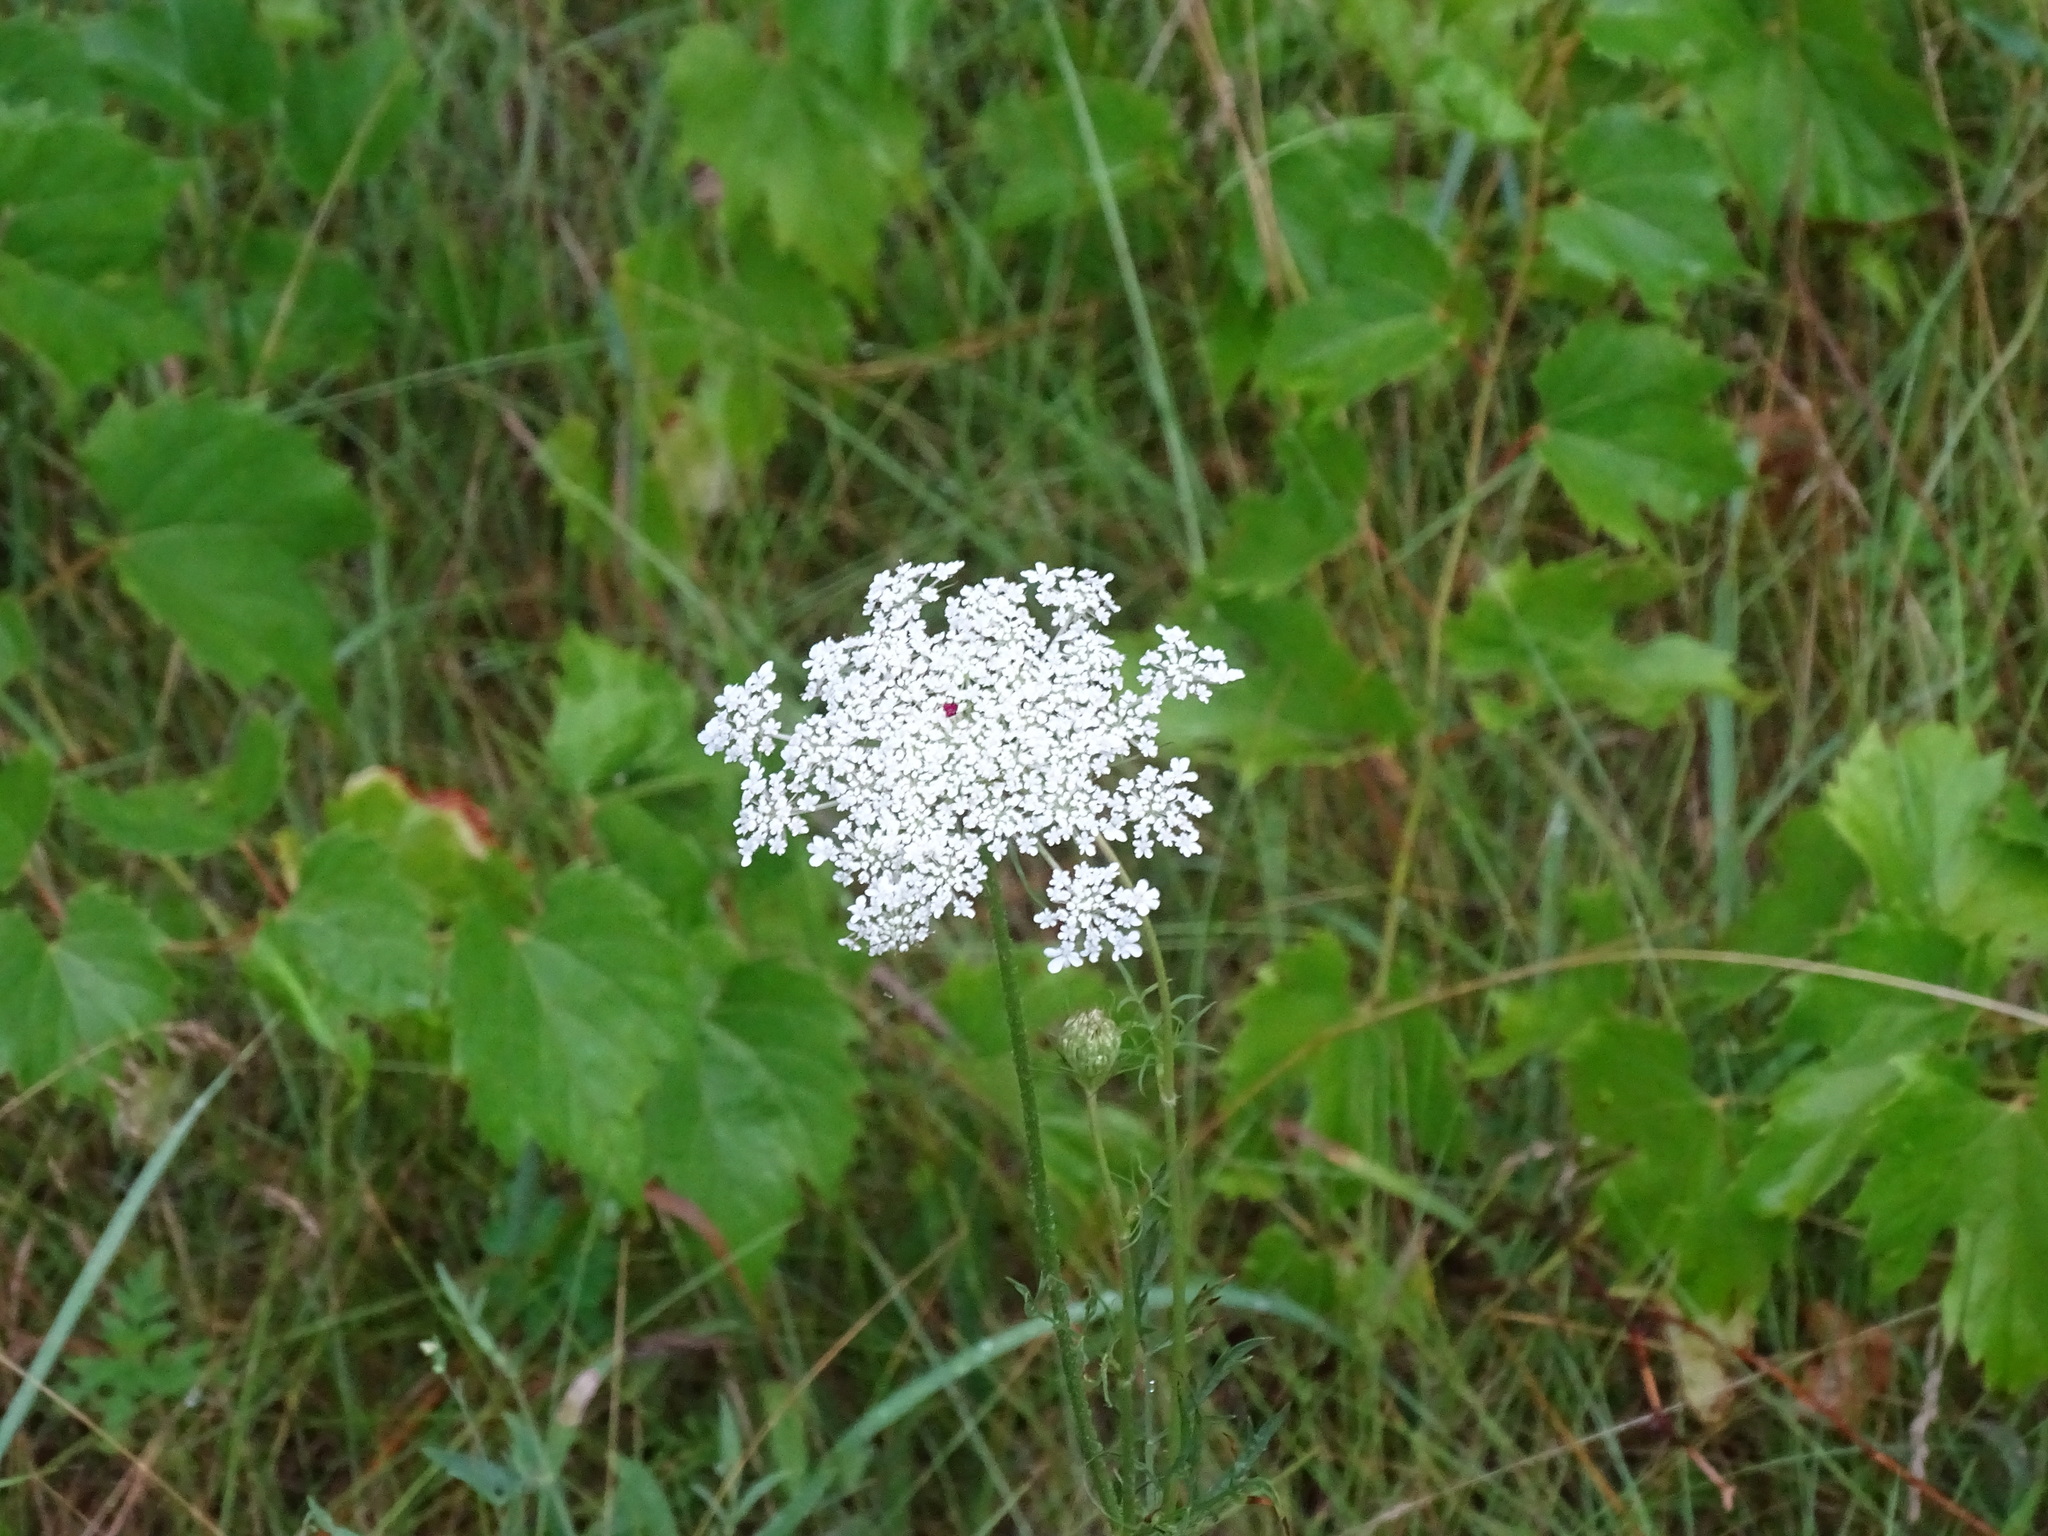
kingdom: Plantae
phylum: Tracheophyta
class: Magnoliopsida
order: Apiales
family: Apiaceae
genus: Daucus
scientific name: Daucus carota
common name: Wild carrot
